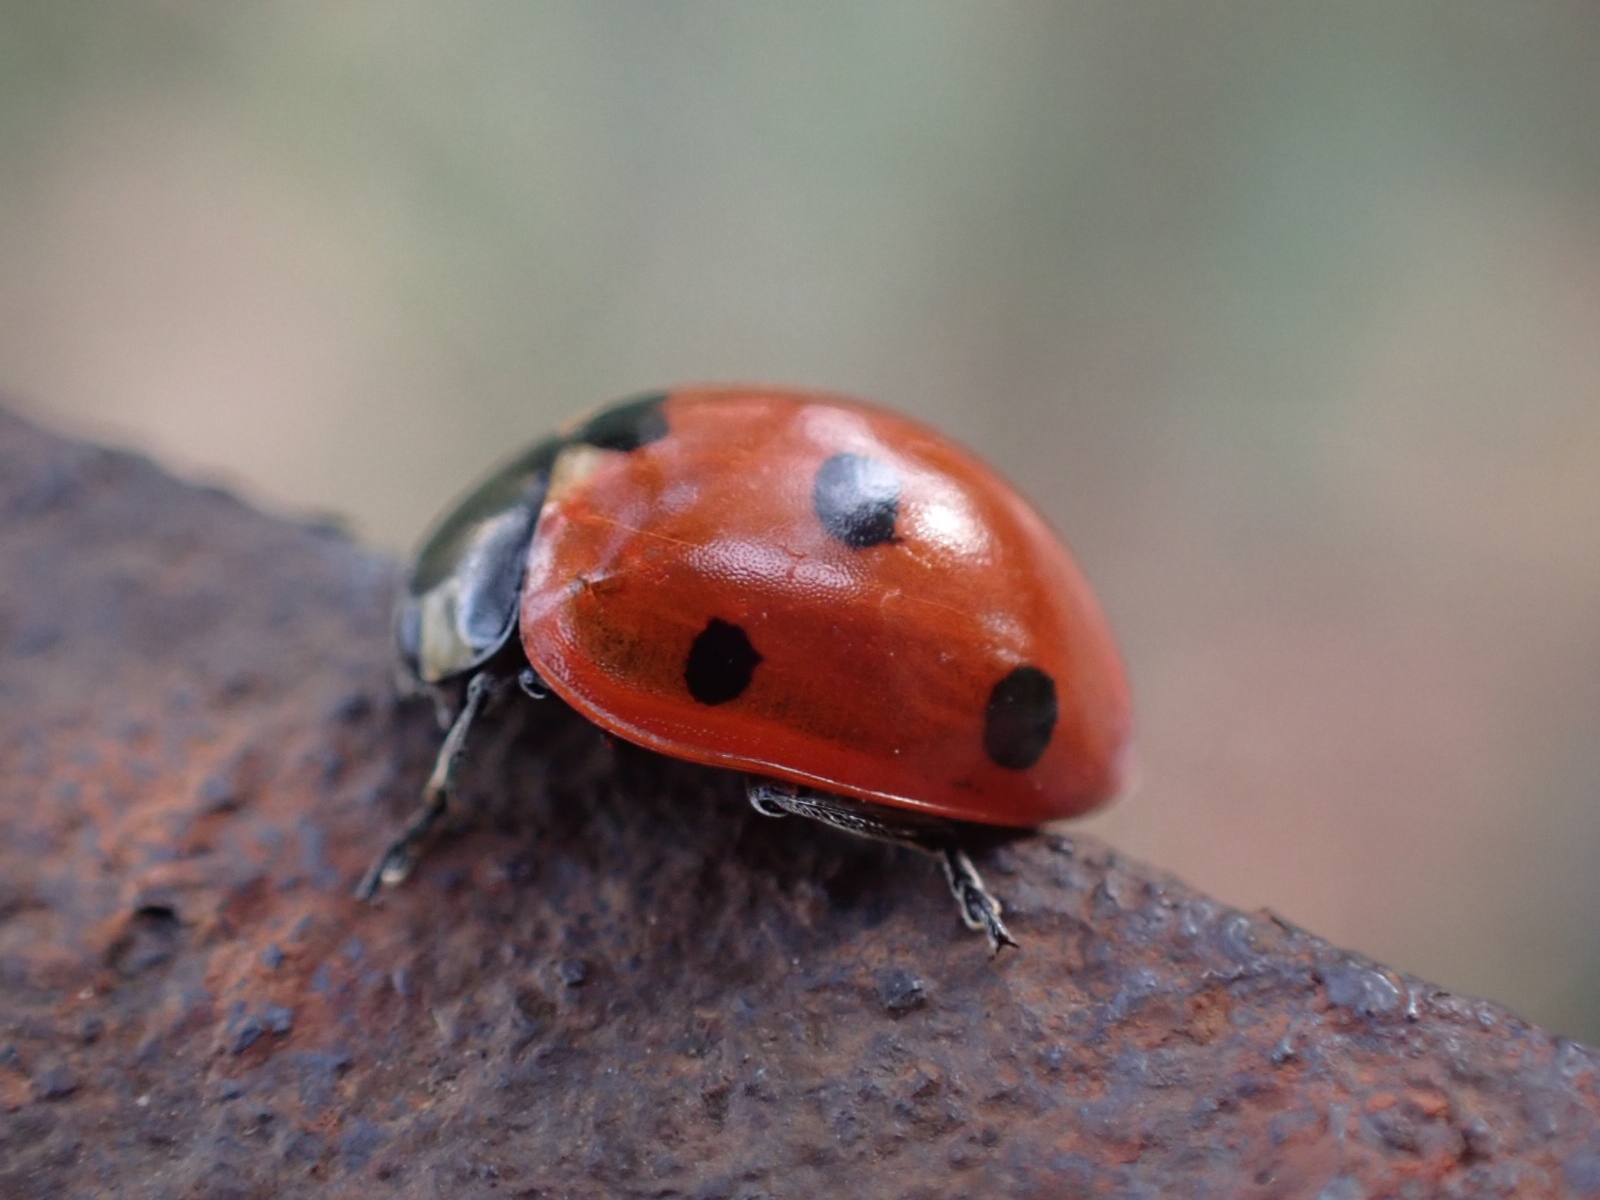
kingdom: Animalia
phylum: Arthropoda
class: Insecta
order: Coleoptera
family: Coccinellidae
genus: Coccinella
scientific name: Coccinella septempunctata
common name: Sevenspotted lady beetle
